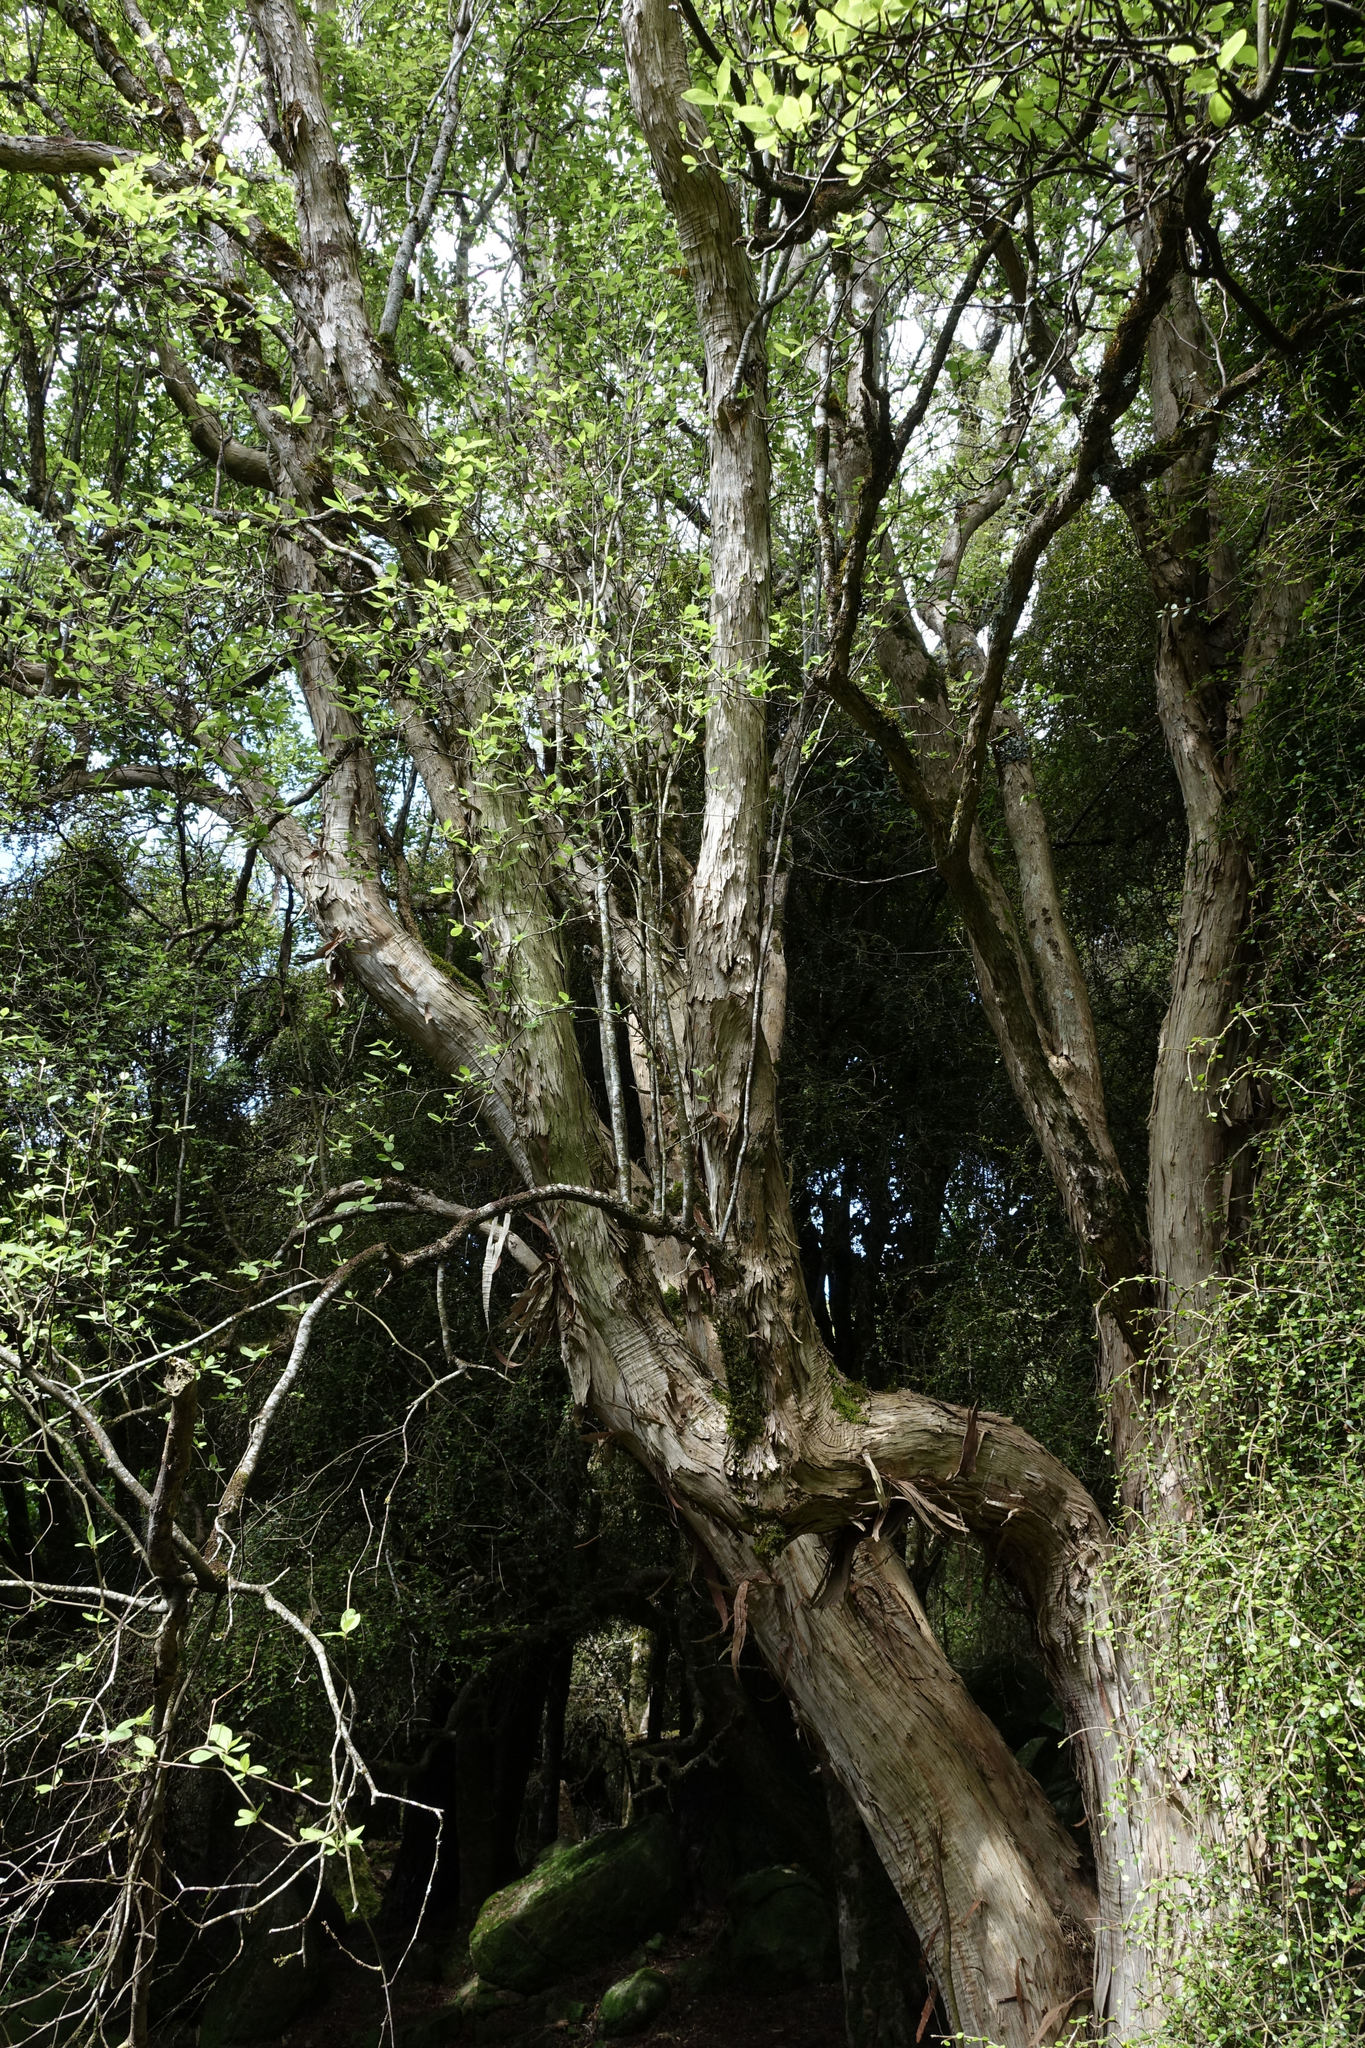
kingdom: Plantae
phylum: Tracheophyta
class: Magnoliopsida
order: Asterales
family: Asteraceae
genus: Olearia
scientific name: Olearia fragrantissima
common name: Fragrant tree daisy
